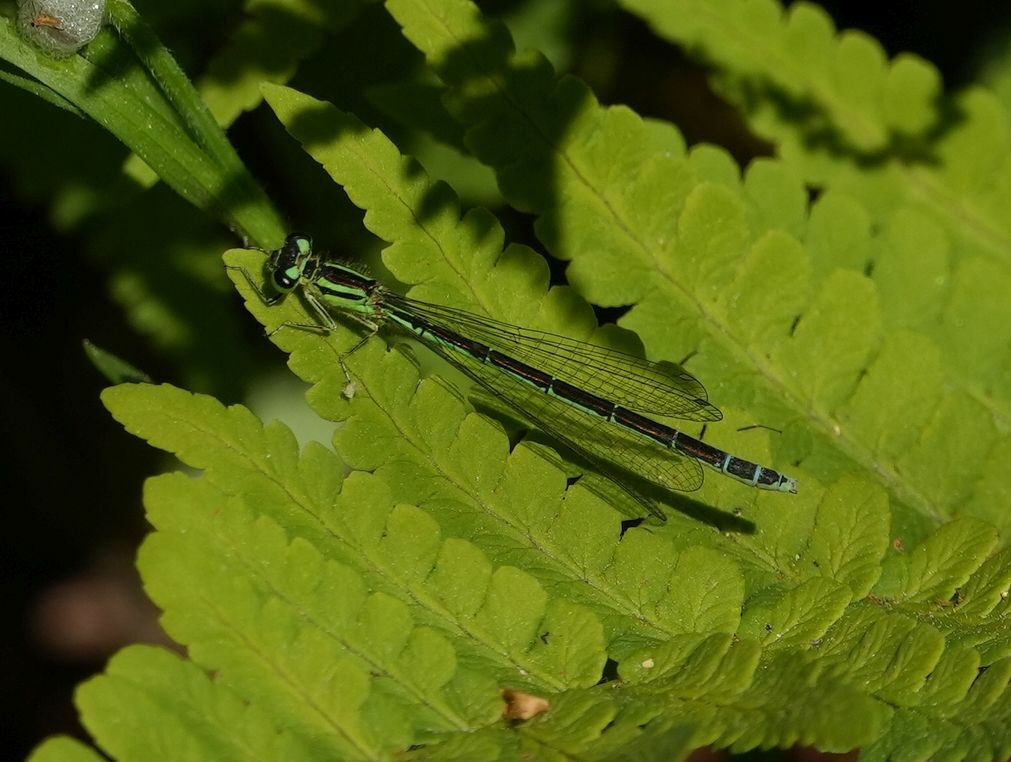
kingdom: Animalia
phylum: Arthropoda
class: Insecta
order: Odonata
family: Coenagrionidae
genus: Coenagrion
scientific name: Coenagrion resolutum
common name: Taiga bluet
